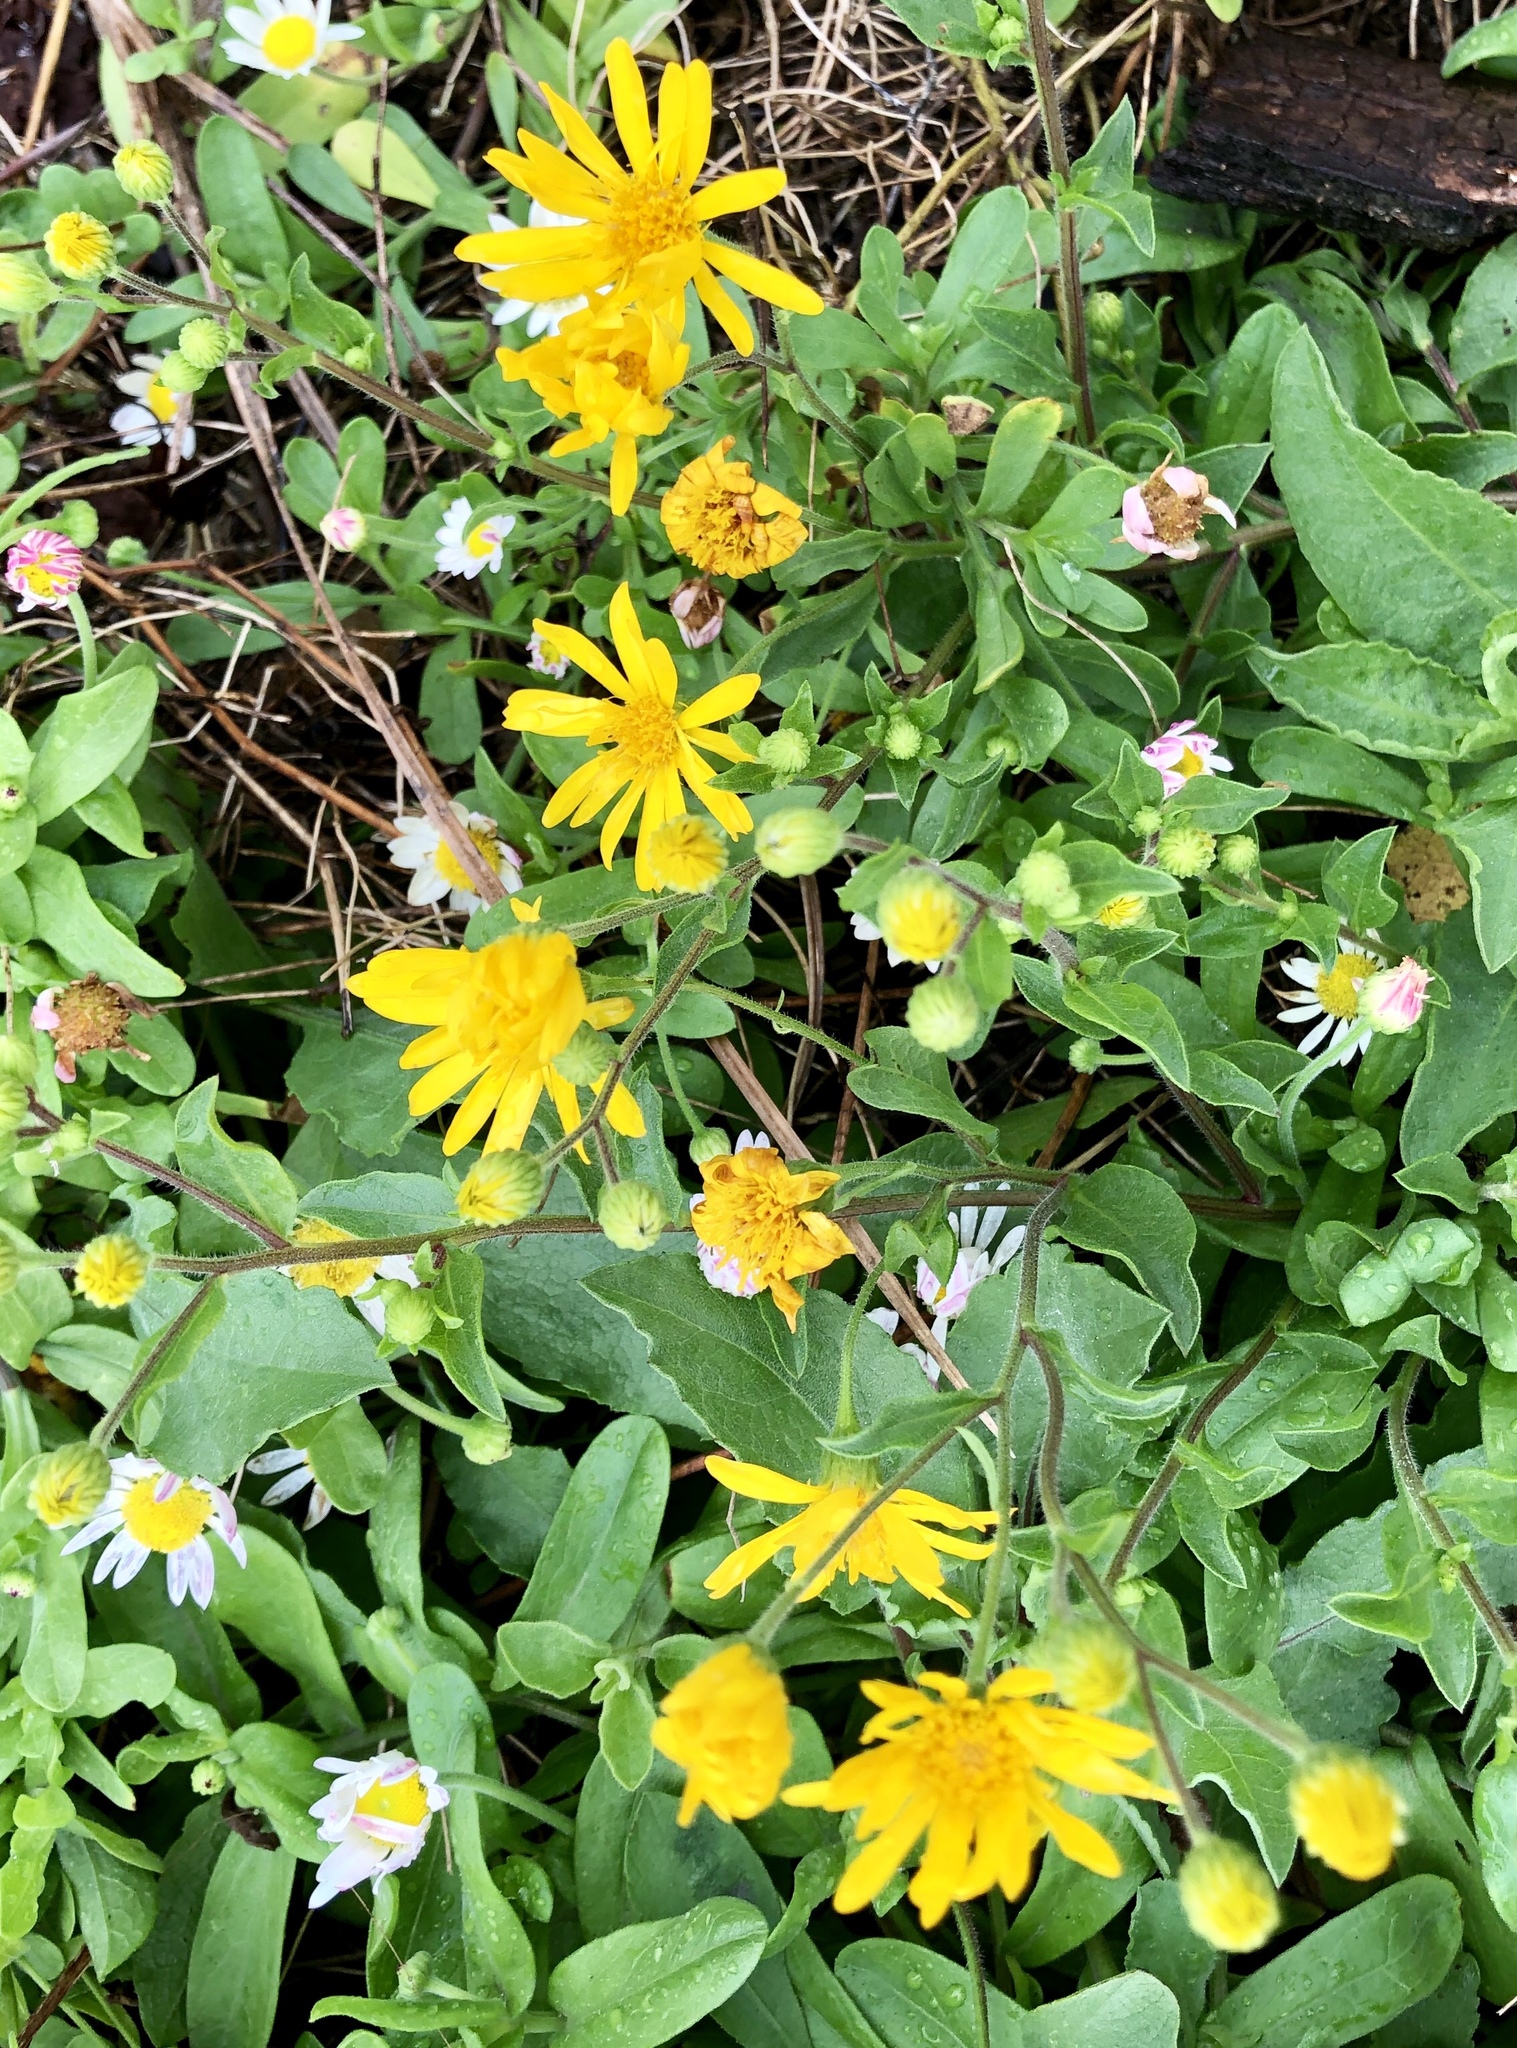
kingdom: Plantae
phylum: Tracheophyta
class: Magnoliopsida
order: Asterales
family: Asteraceae
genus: Heterotheca
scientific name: Heterotheca subaxillaris
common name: Camphorweed
